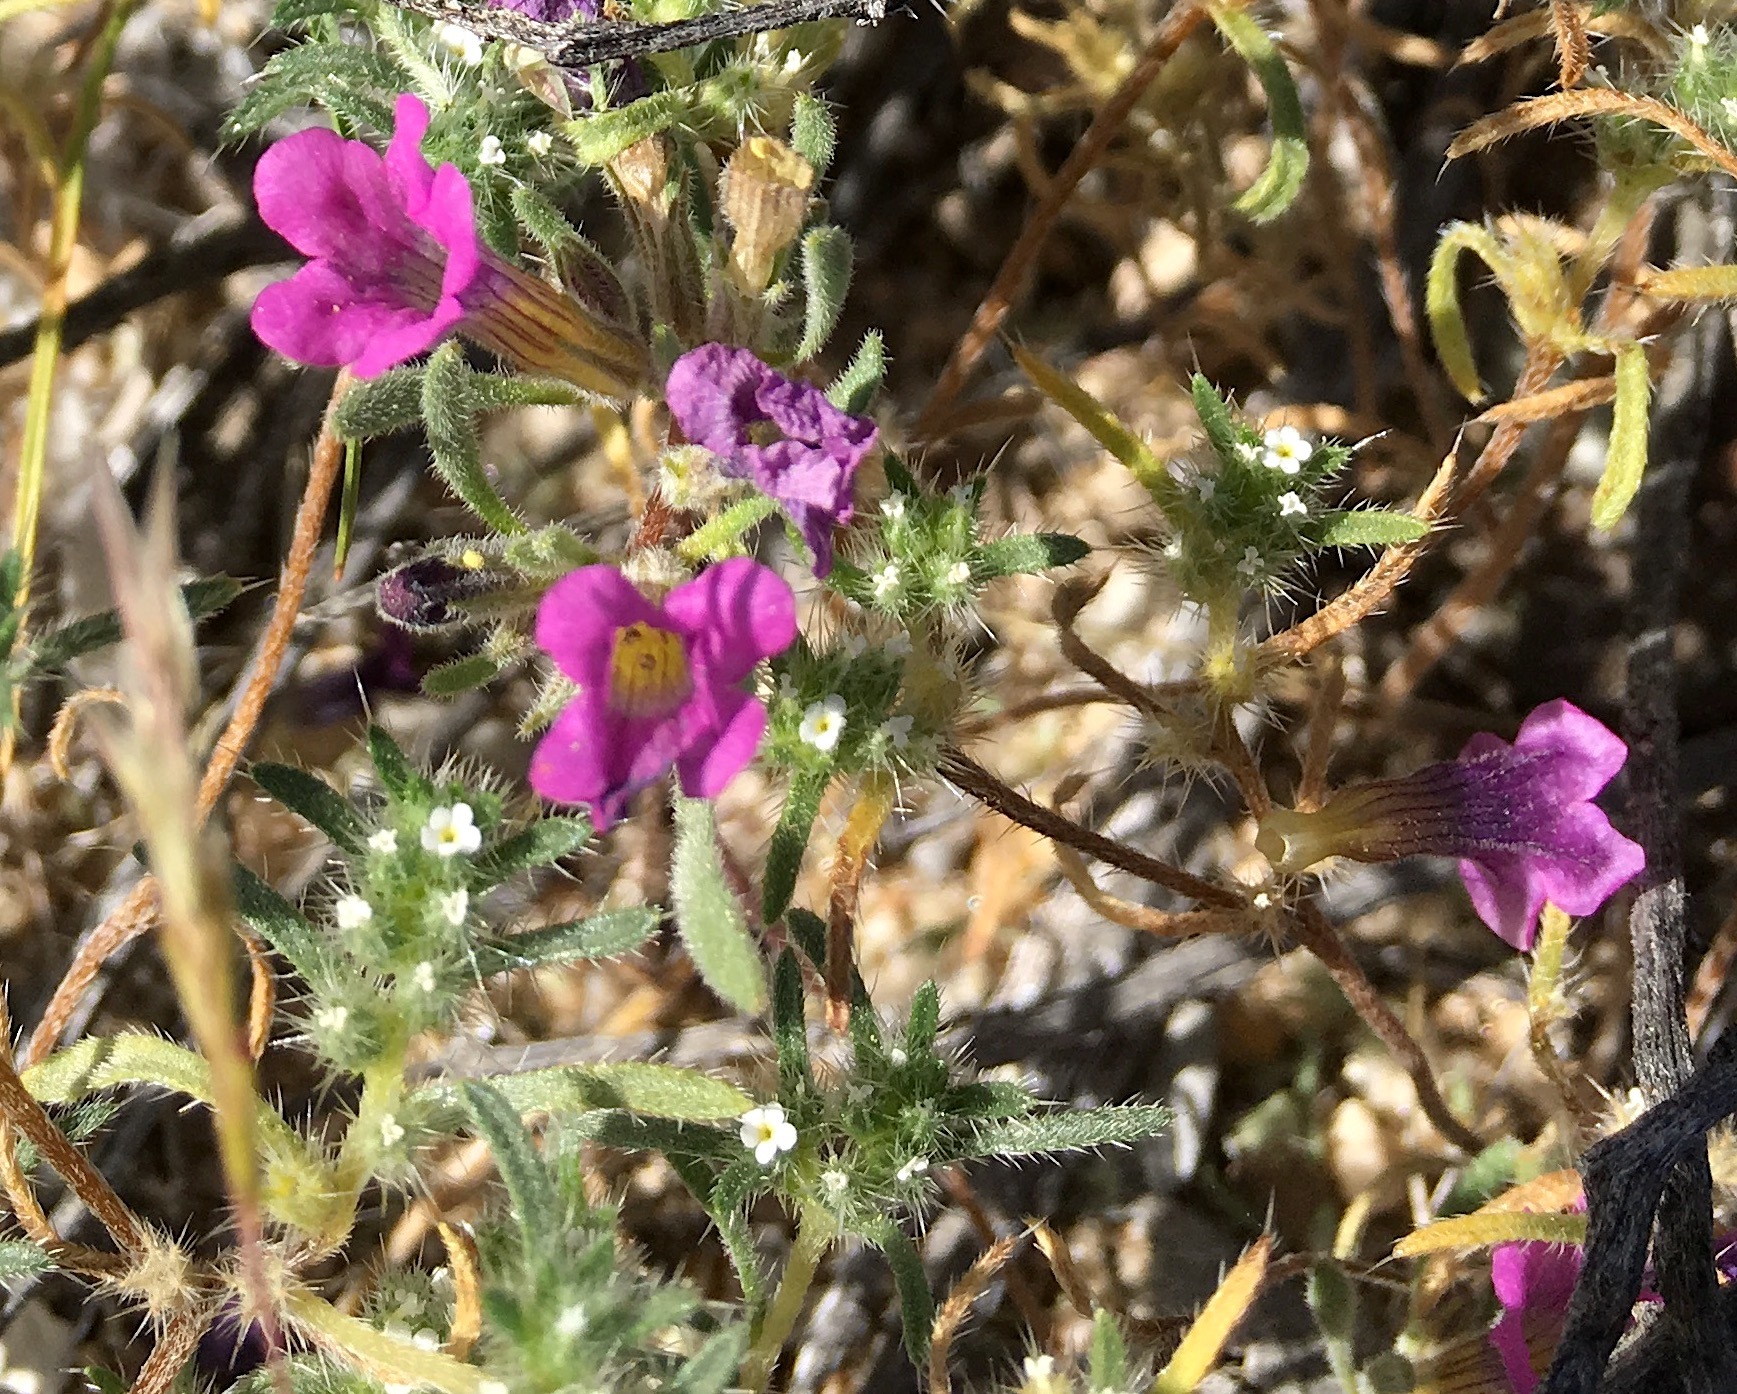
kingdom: Plantae
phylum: Tracheophyta
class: Magnoliopsida
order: Boraginales
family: Namaceae
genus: Nama
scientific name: Nama demissa
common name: Leafy nama
